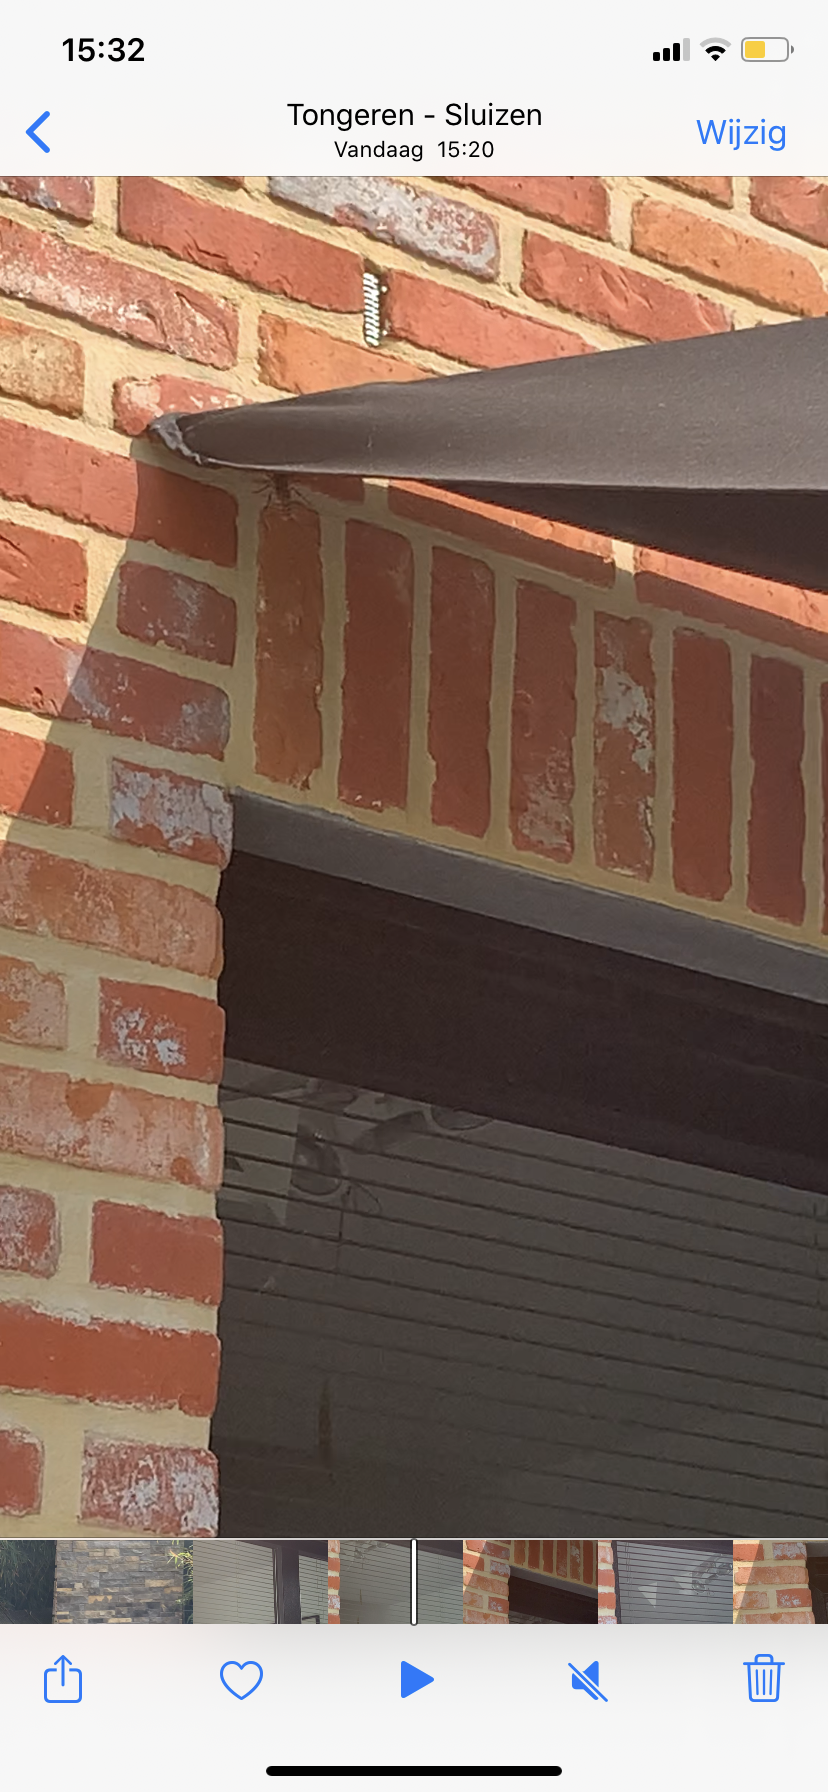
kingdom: Animalia
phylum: Arthropoda
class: Insecta
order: Hymenoptera
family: Vespidae
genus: Vespa
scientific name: Vespa crabro
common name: Hornet
